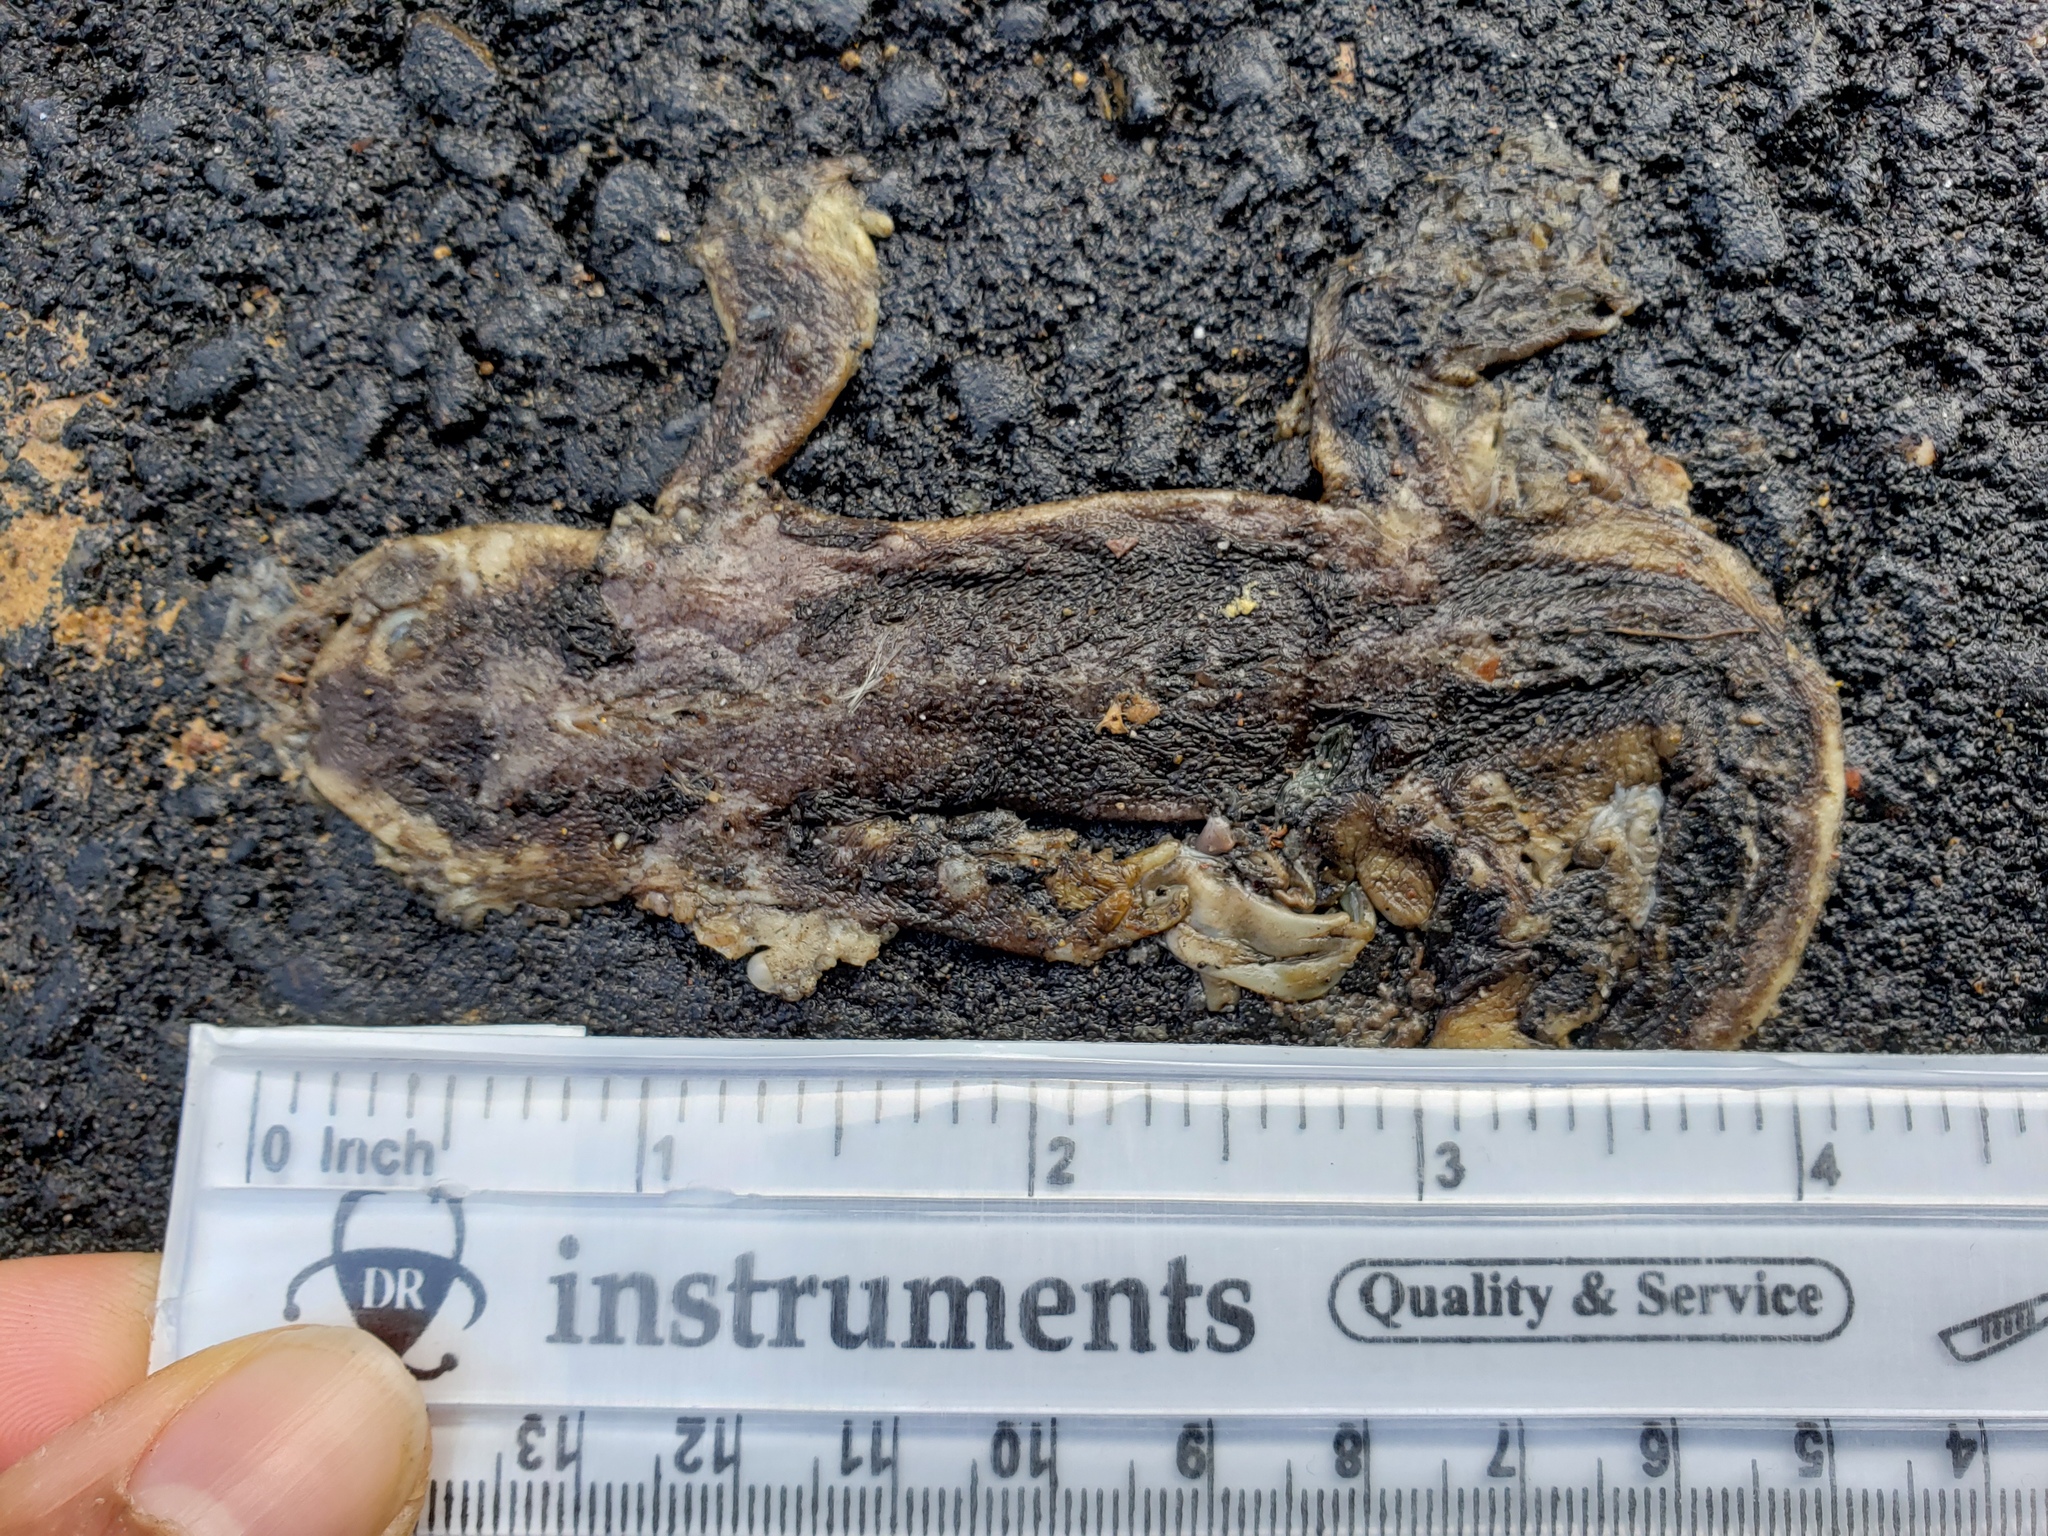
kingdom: Animalia
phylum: Chordata
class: Amphibia
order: Caudata
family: Salamandridae
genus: Taricha
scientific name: Taricha
